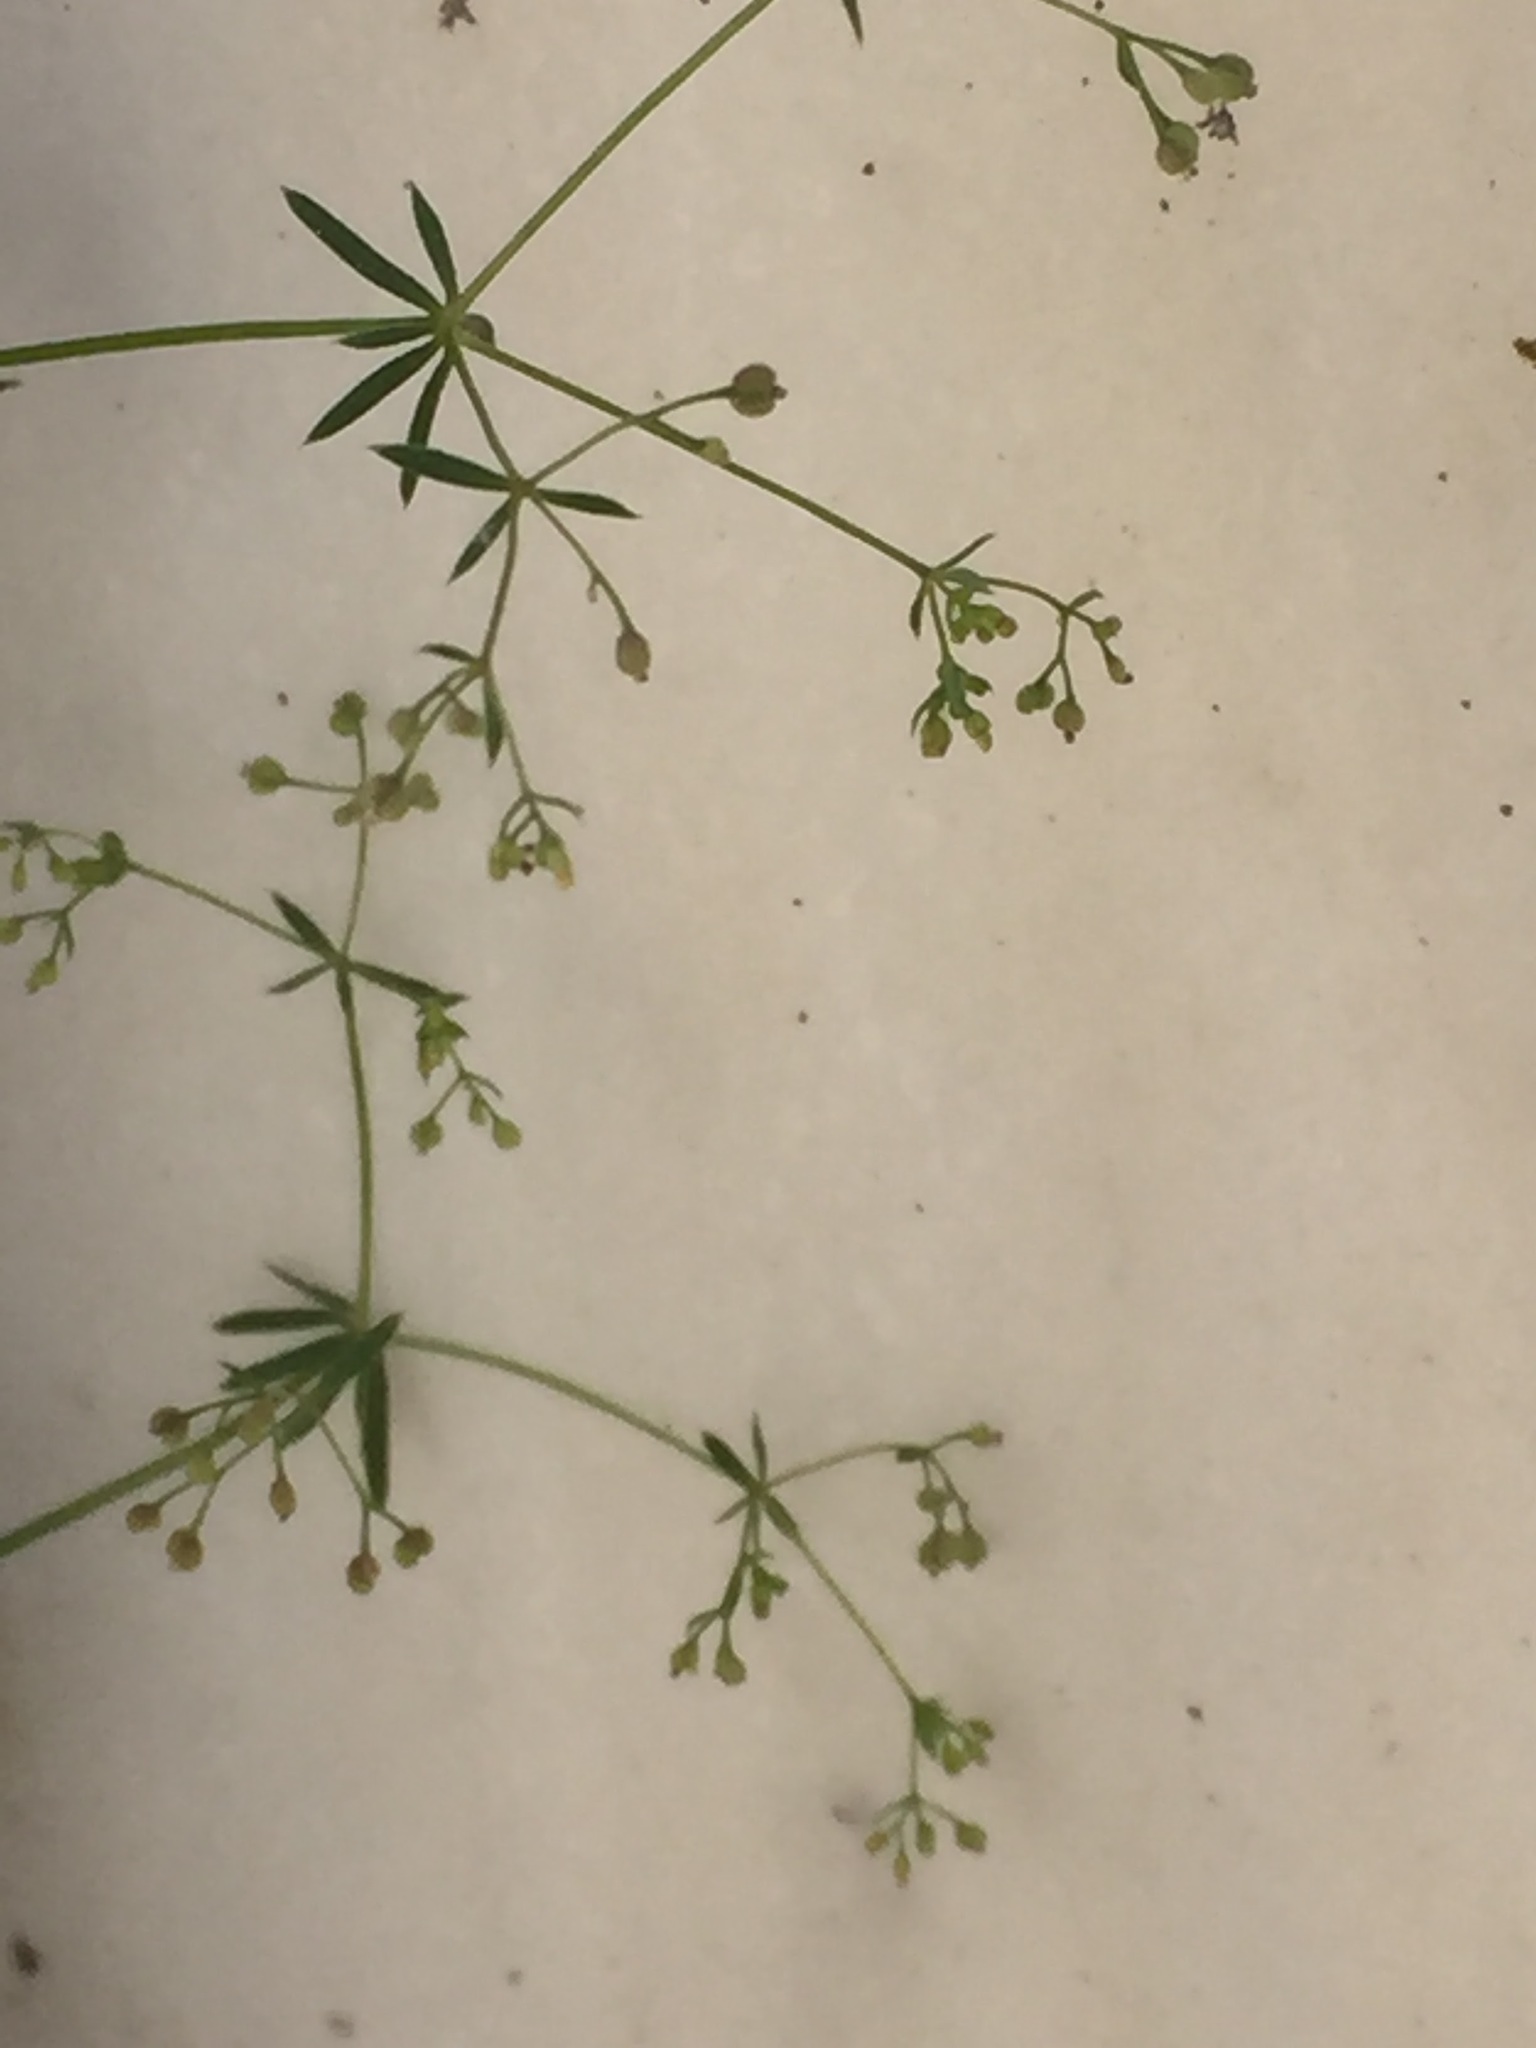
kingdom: Plantae
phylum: Tracheophyta
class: Magnoliopsida
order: Gentianales
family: Rubiaceae
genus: Galium
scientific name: Galium parisiense
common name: Wall bedstraw
